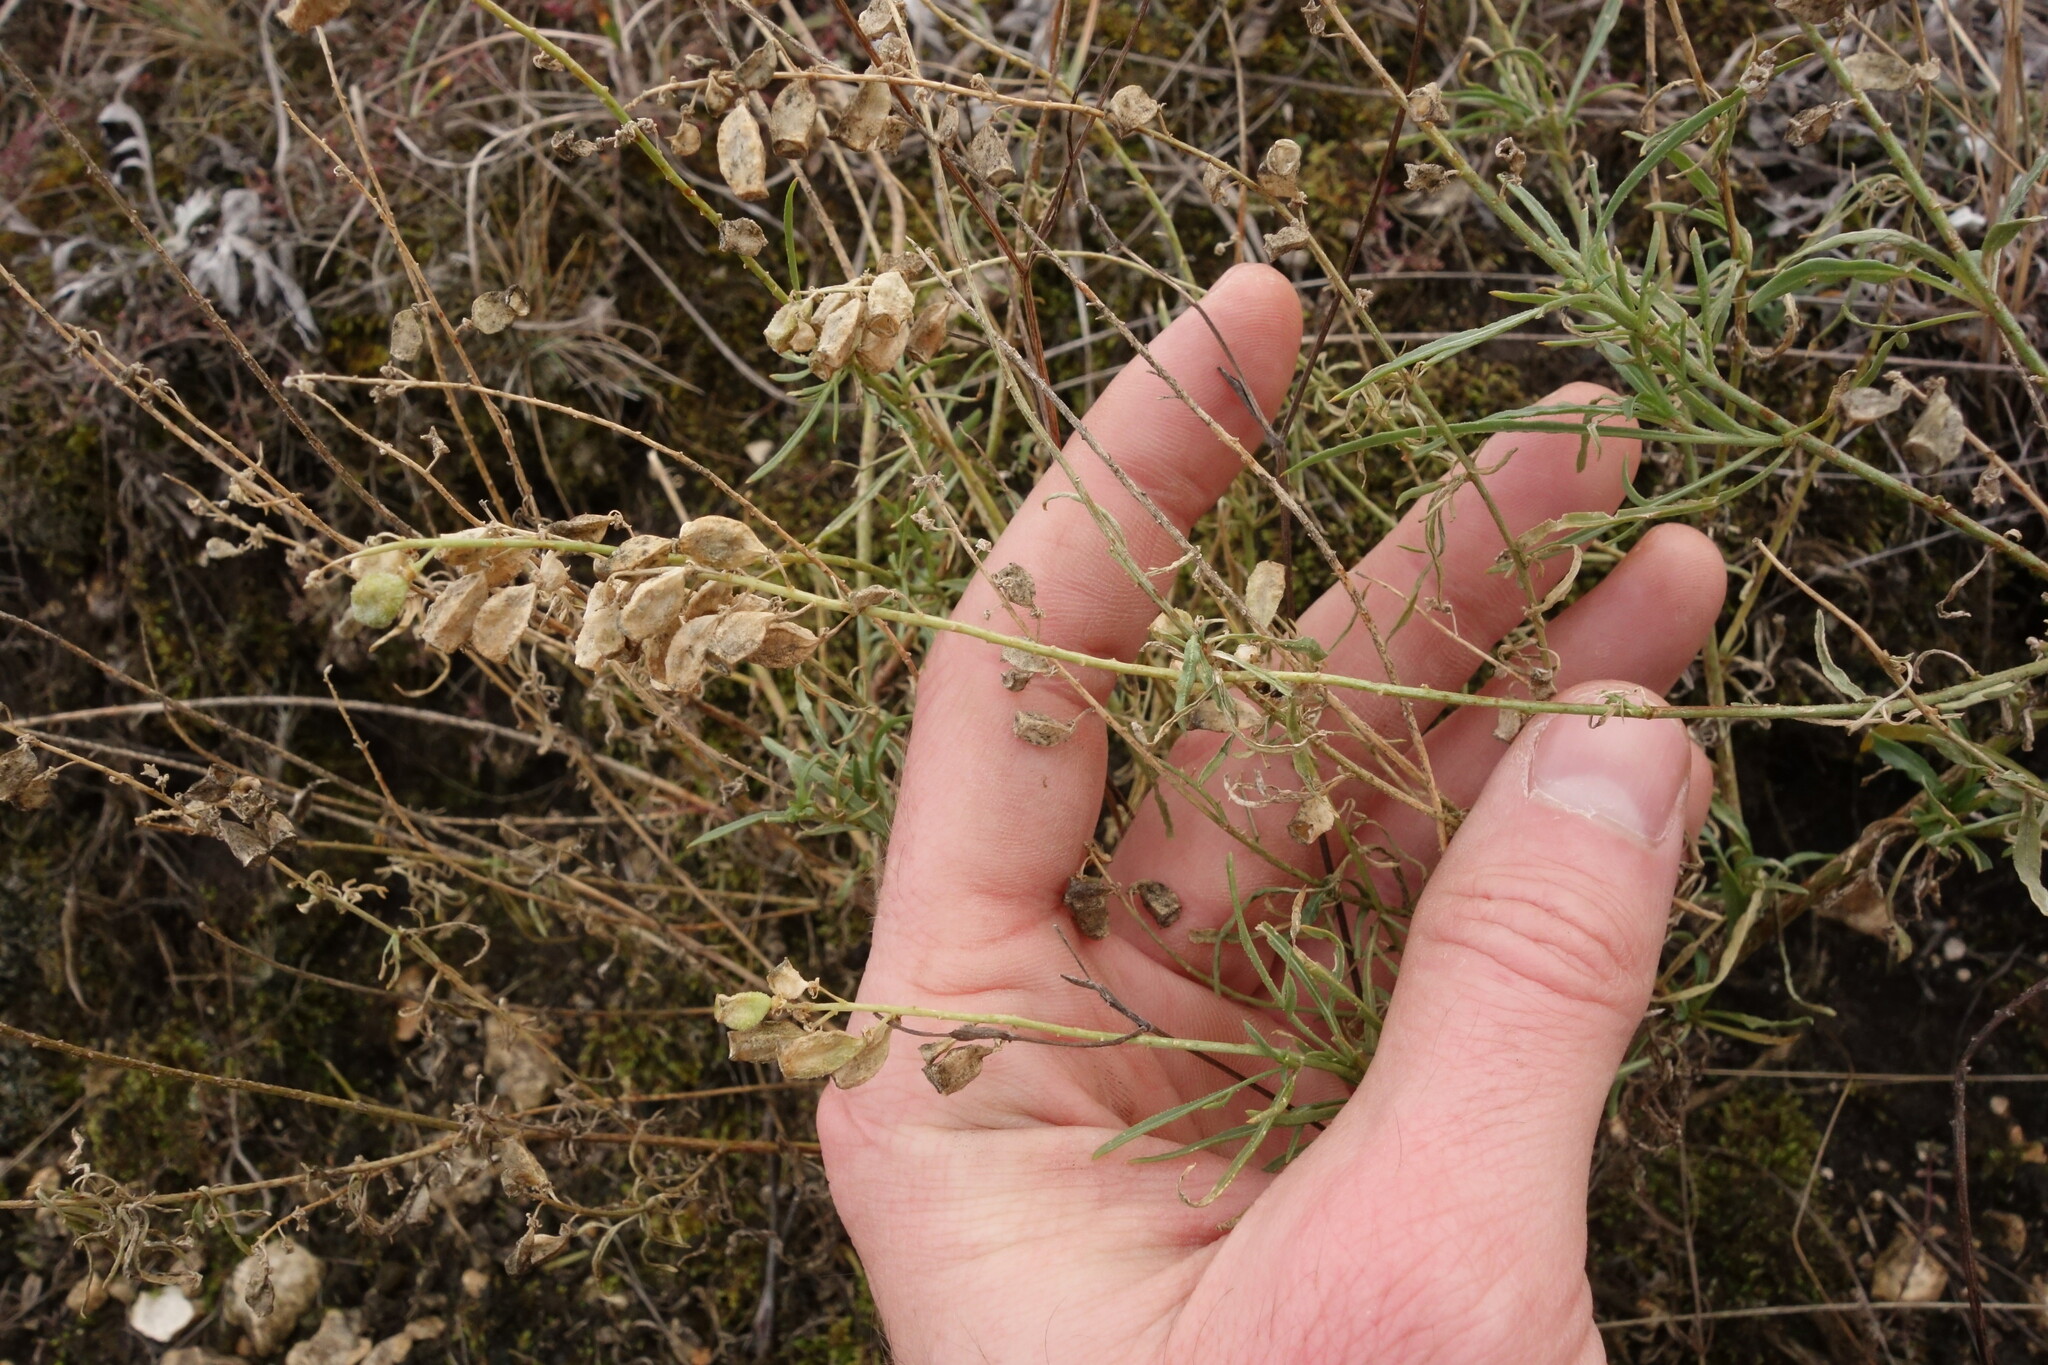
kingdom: Plantae
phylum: Tracheophyta
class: Magnoliopsida
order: Brassicales
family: Resedaceae
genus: Reseda
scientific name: Reseda lutea
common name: Wild mignonette
